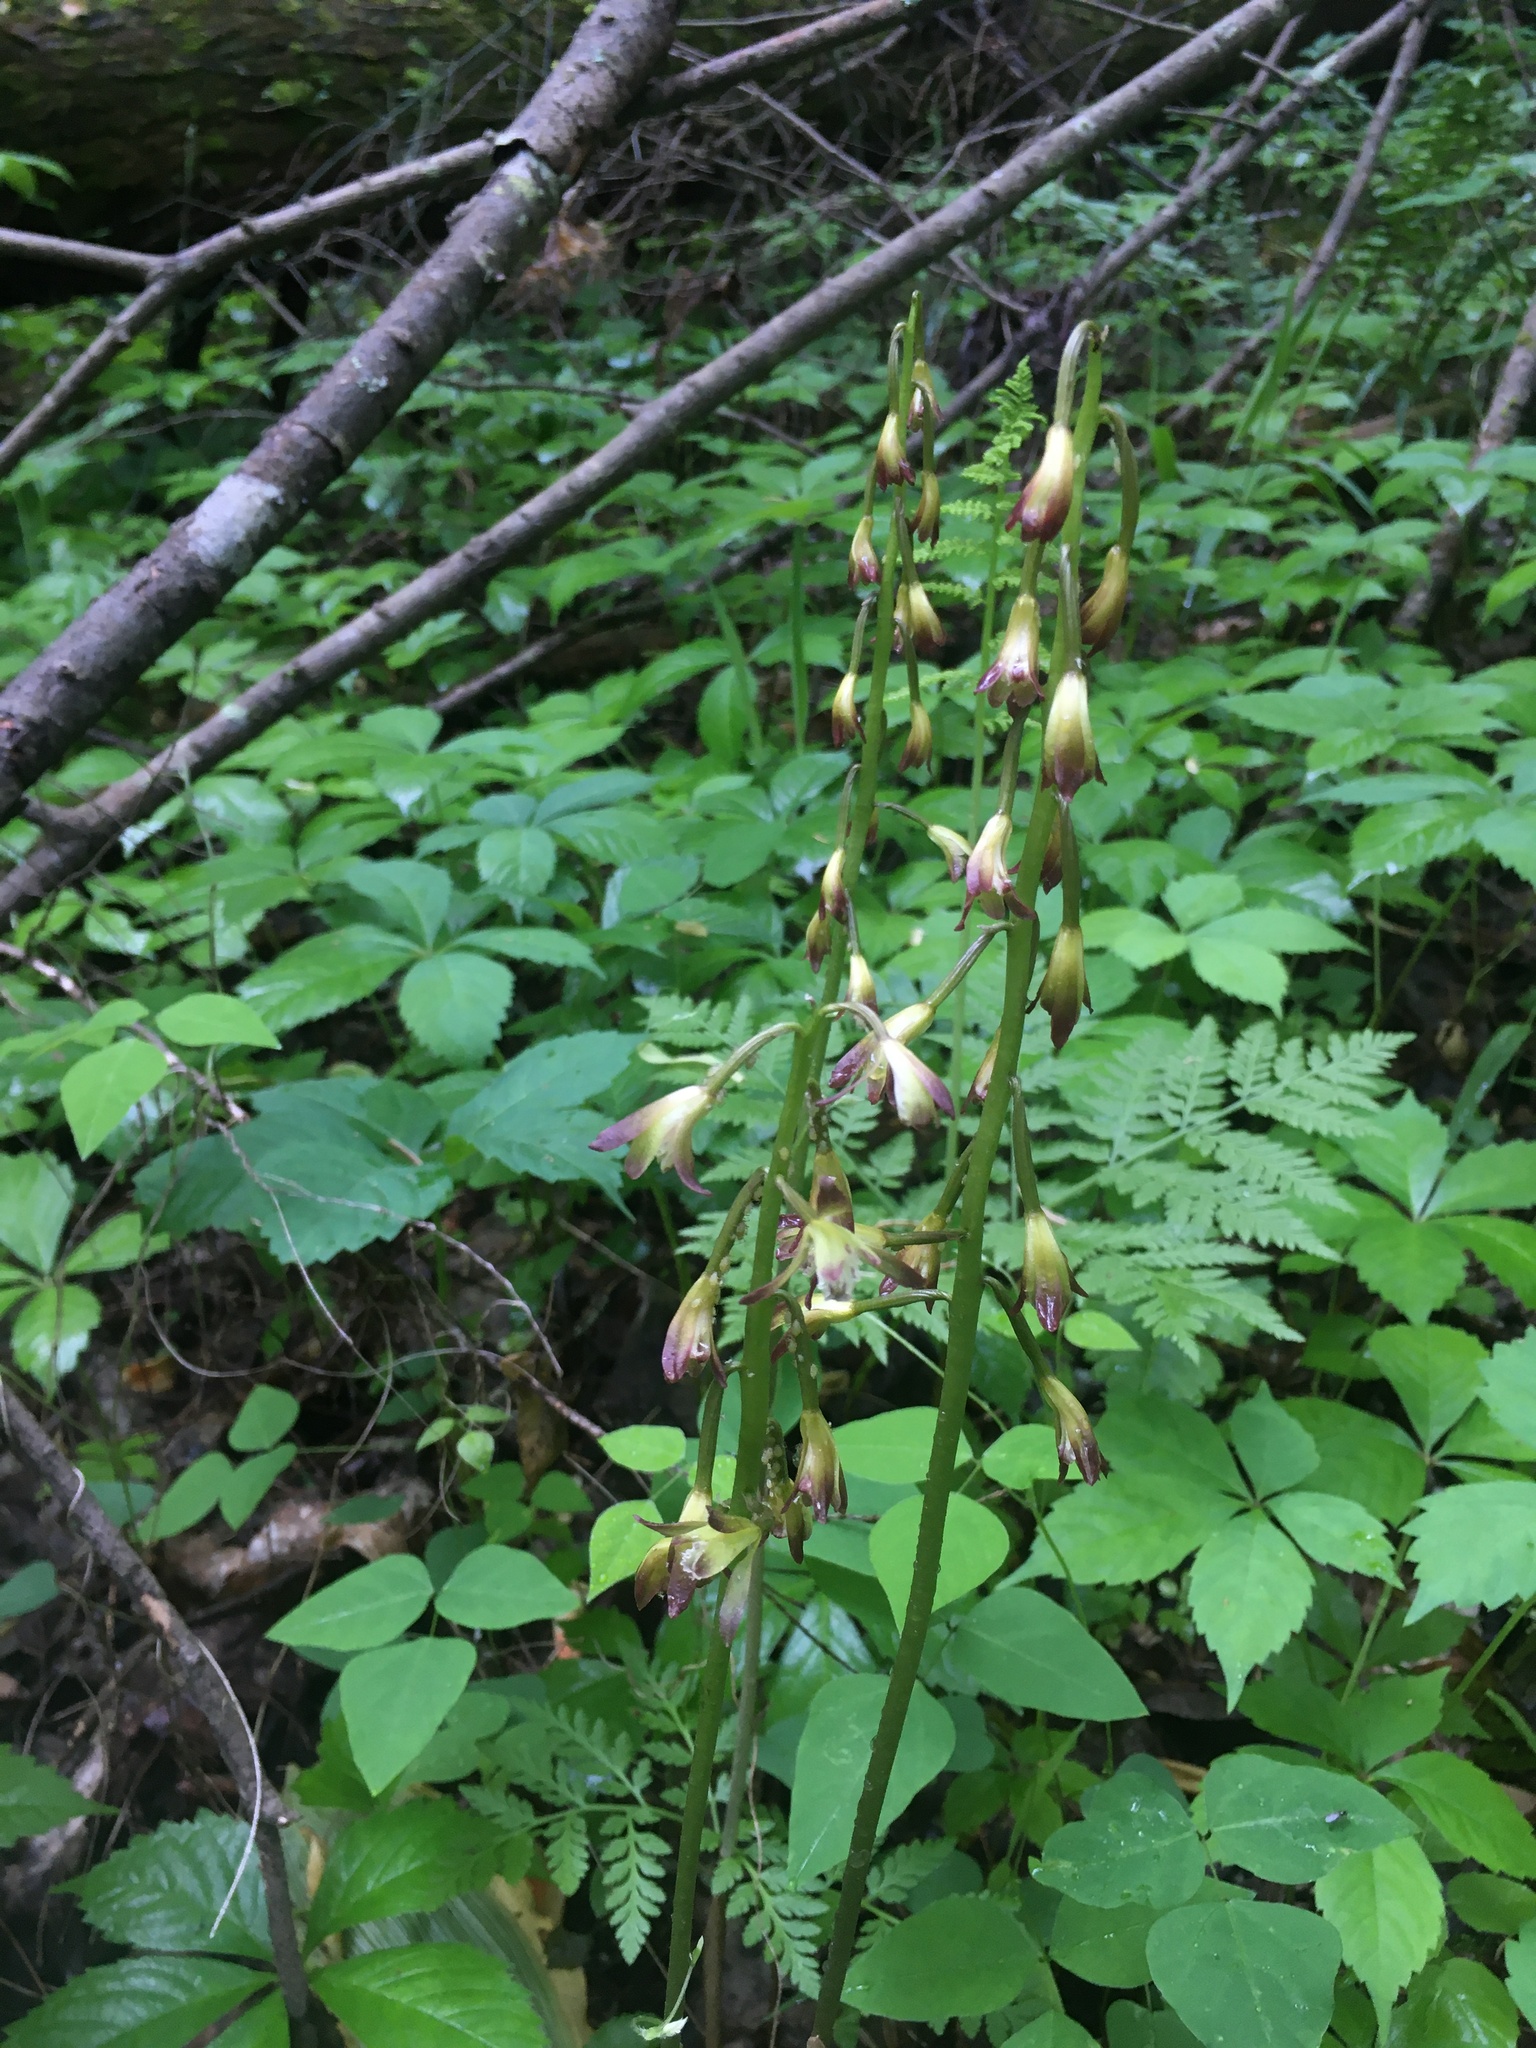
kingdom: Plantae
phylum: Tracheophyta
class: Liliopsida
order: Asparagales
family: Orchidaceae
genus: Aplectrum
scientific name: Aplectrum hyemale
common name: Adam-and-eve
